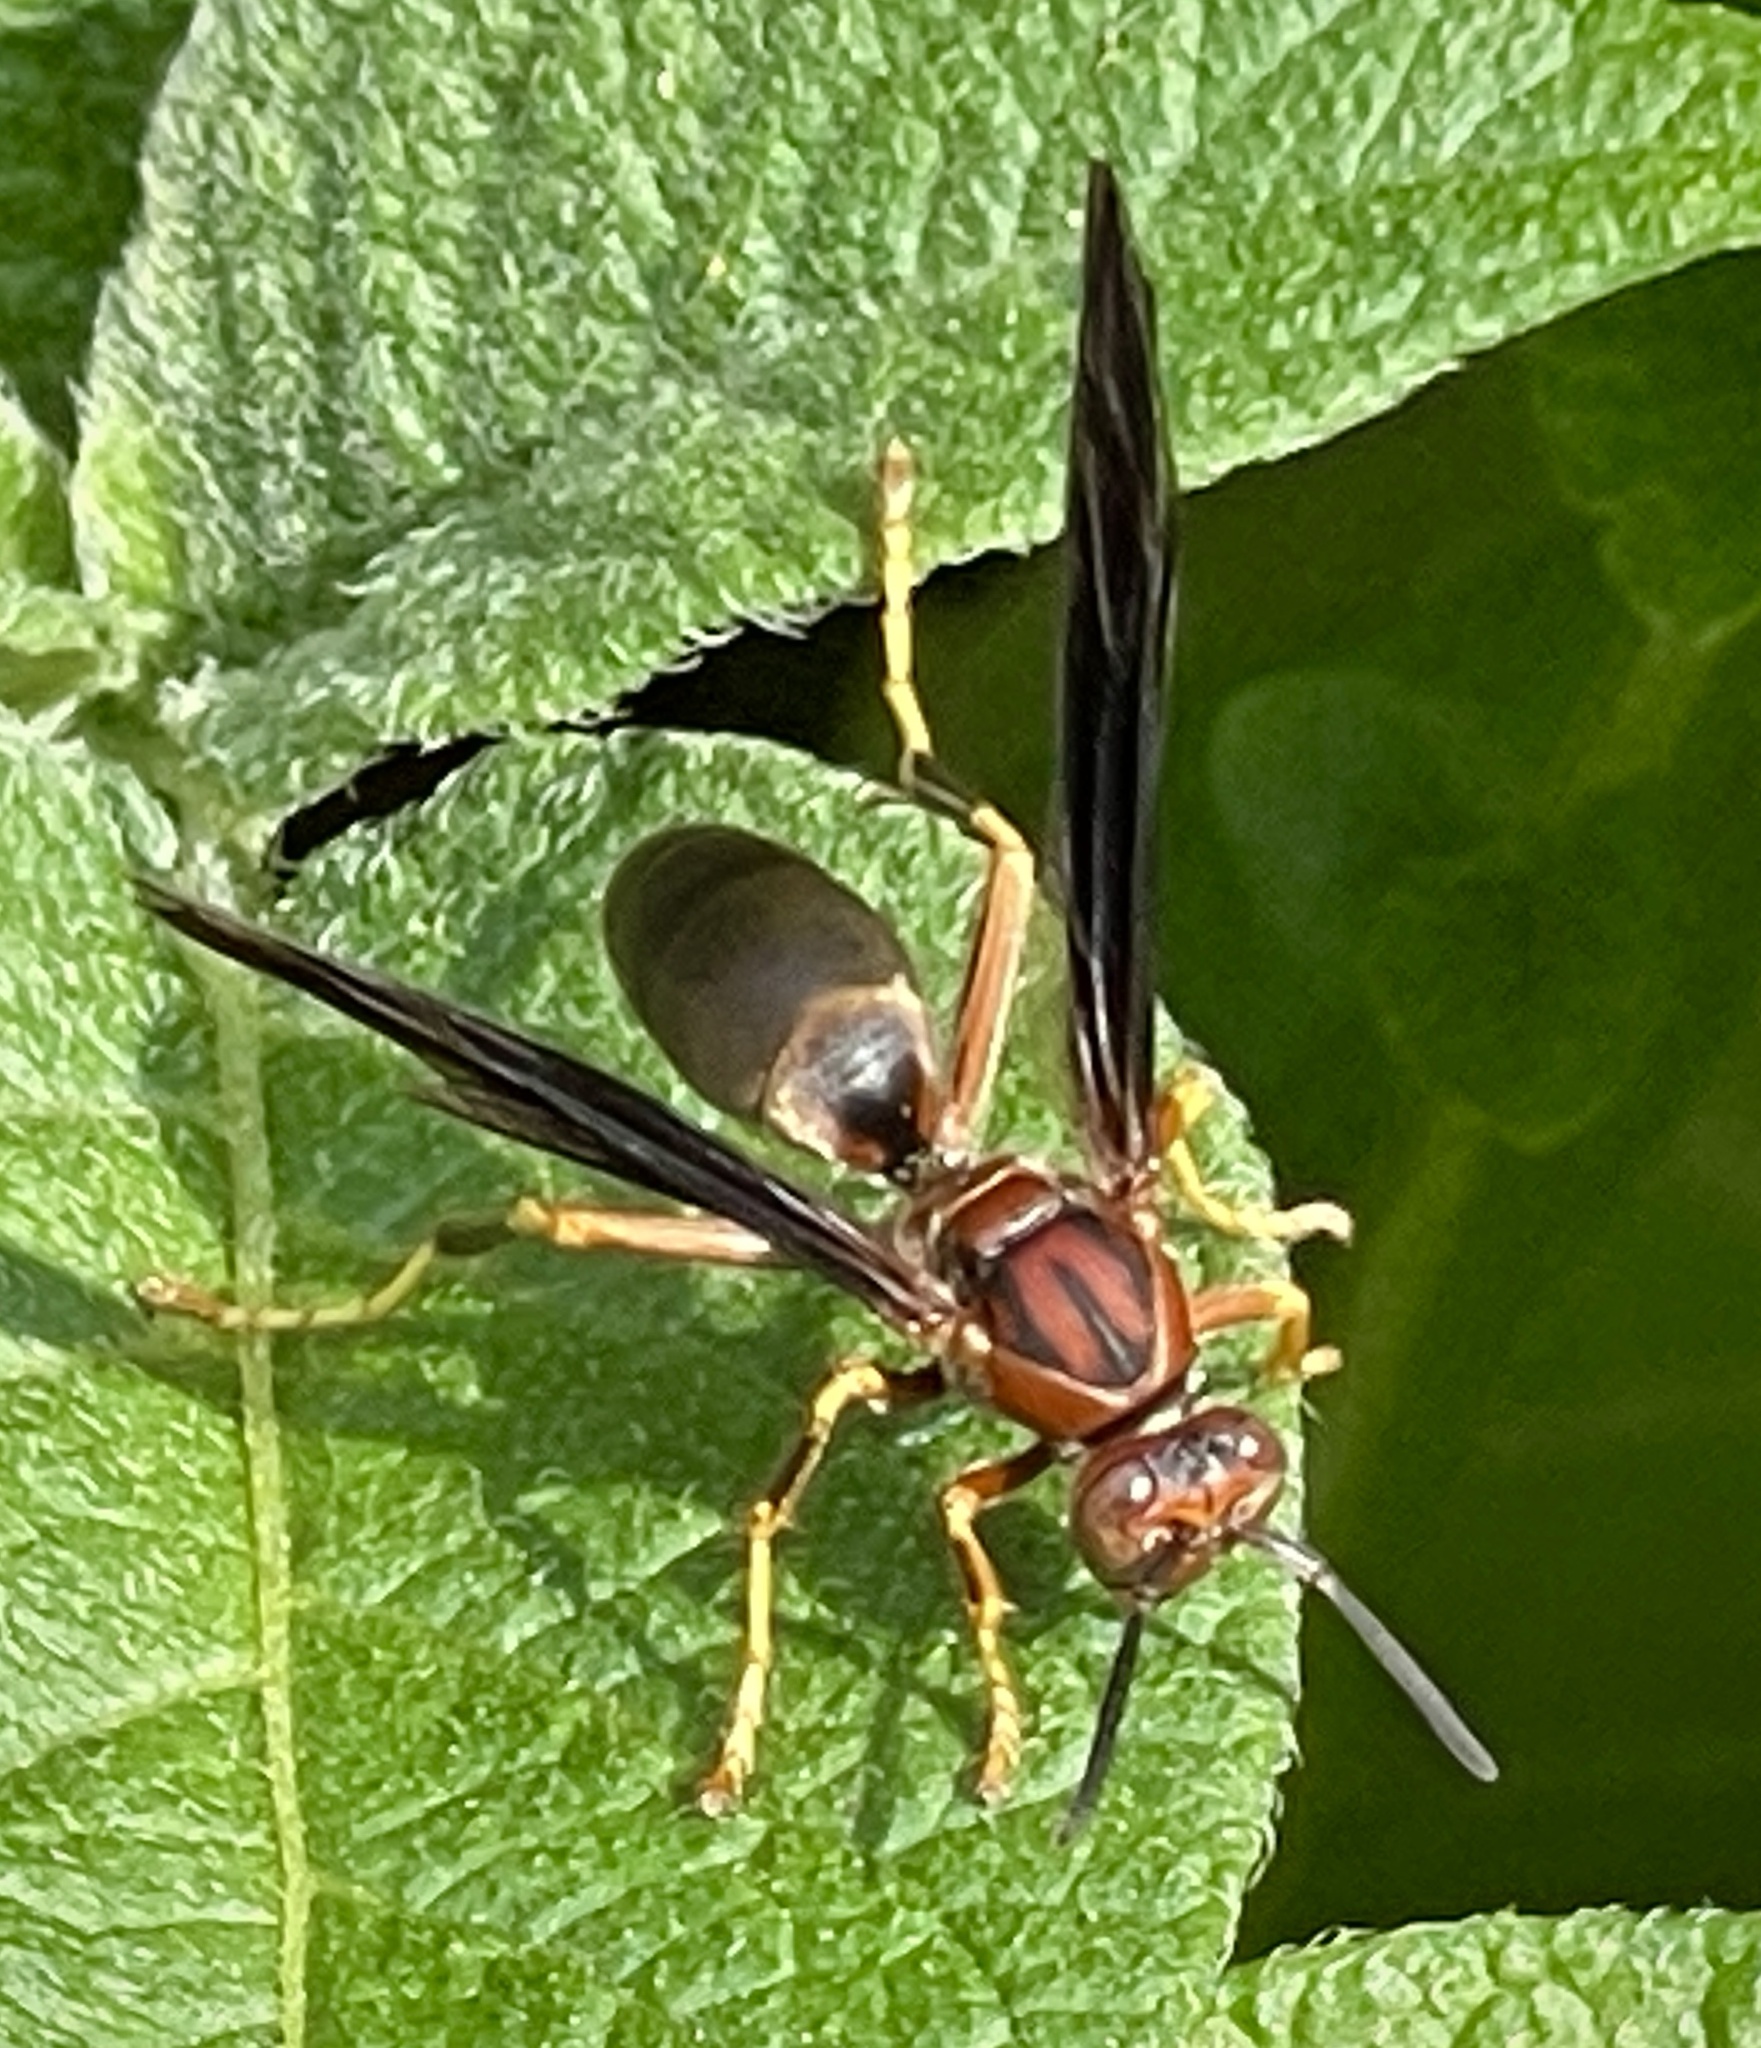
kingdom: Animalia
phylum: Arthropoda
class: Insecta
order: Hymenoptera
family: Eumenidae
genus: Polistes
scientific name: Polistes metricus
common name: Metric paper wasp
